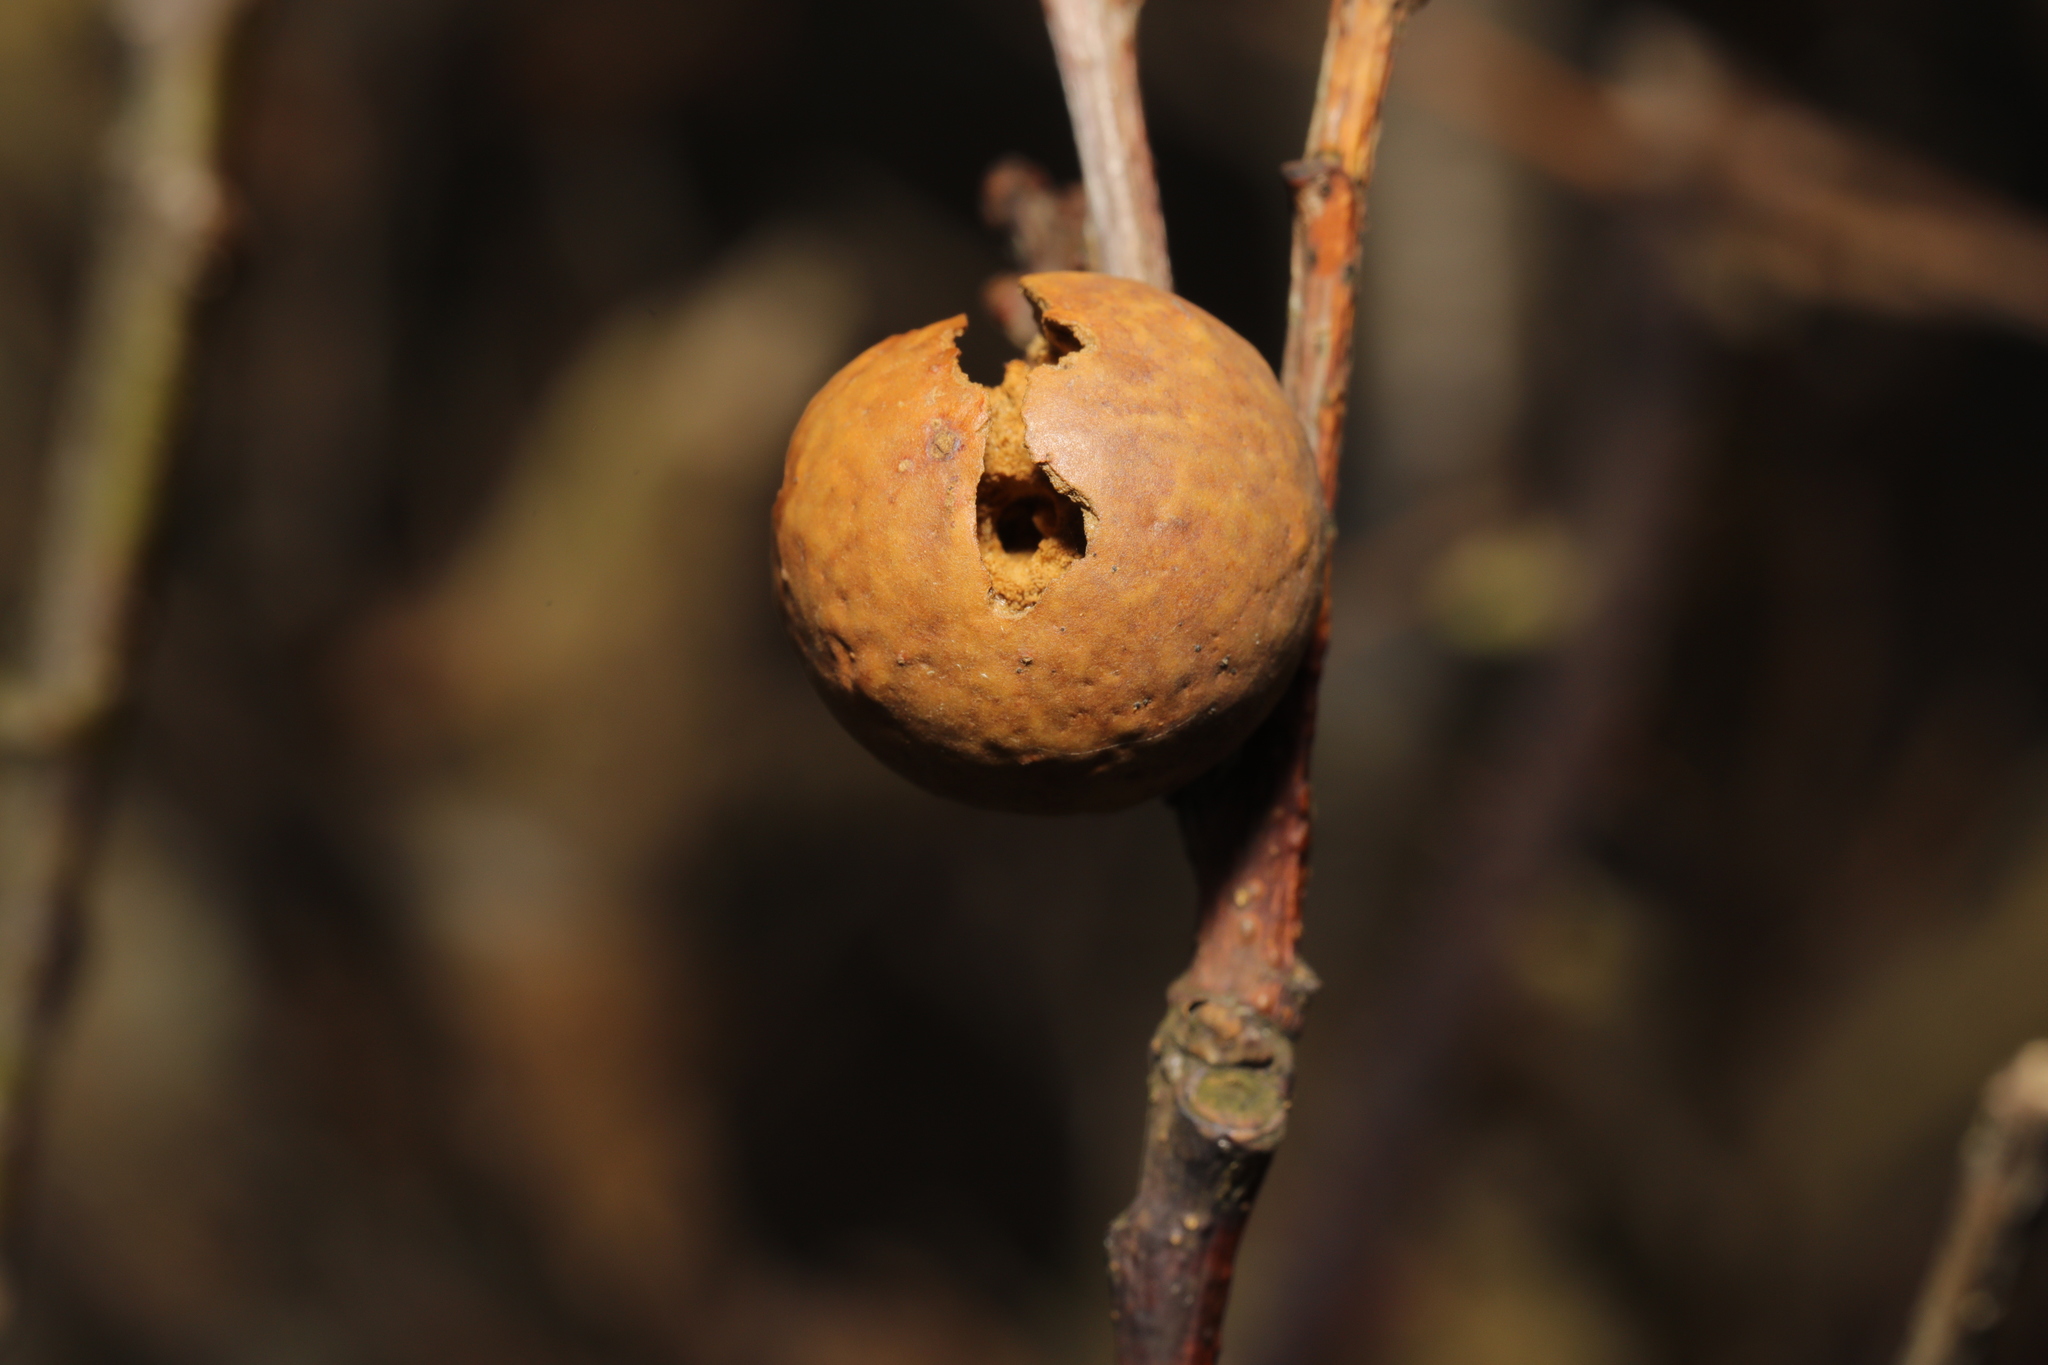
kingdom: Animalia
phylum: Arthropoda
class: Insecta
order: Hymenoptera
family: Cynipidae
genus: Andricus
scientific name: Andricus kollari
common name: Marble gall
